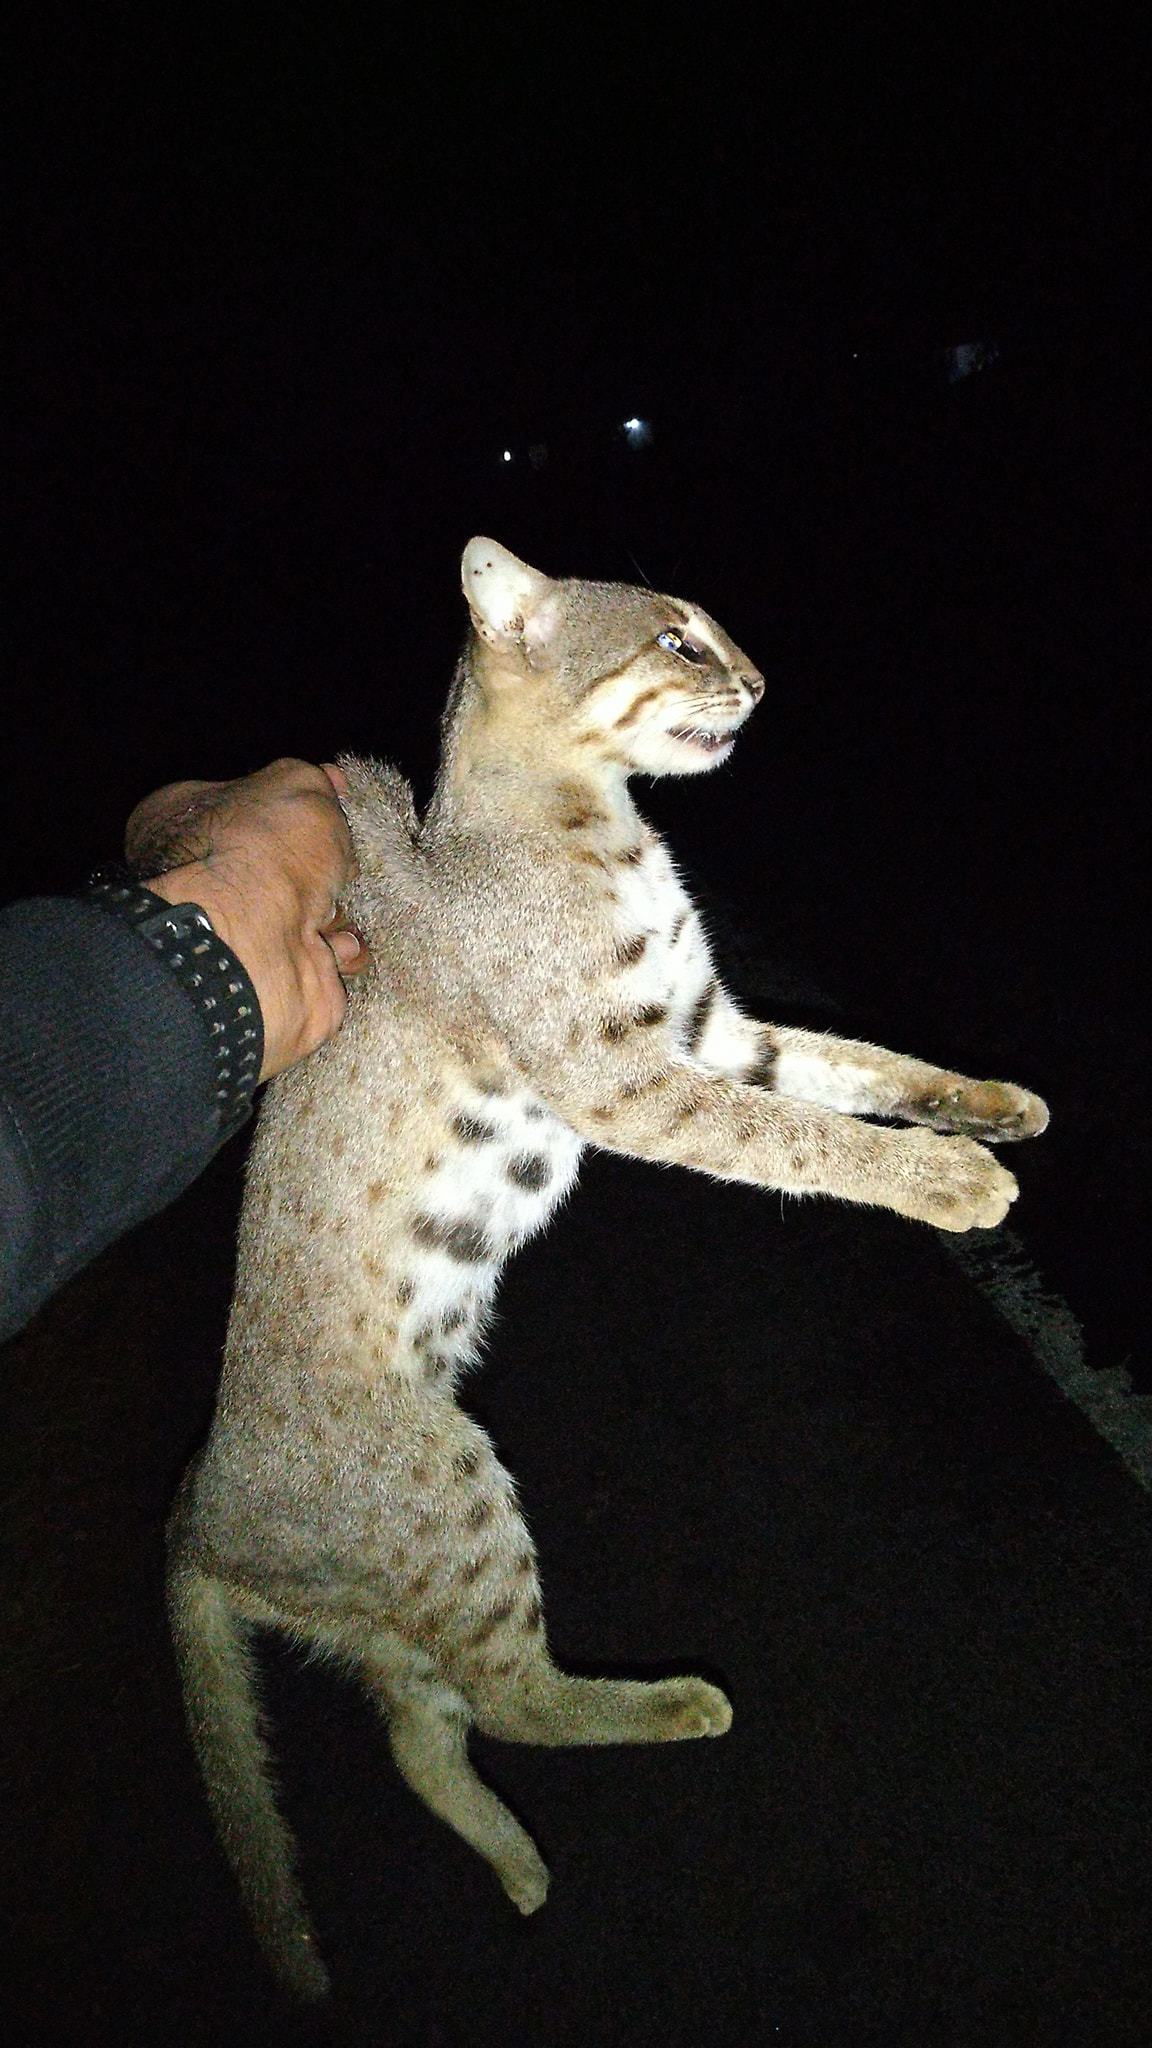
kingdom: Animalia
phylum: Chordata
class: Mammalia
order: Carnivora
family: Felidae
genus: Prionailurus
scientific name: Prionailurus rubiginosus
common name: Rusty-spotted cat
